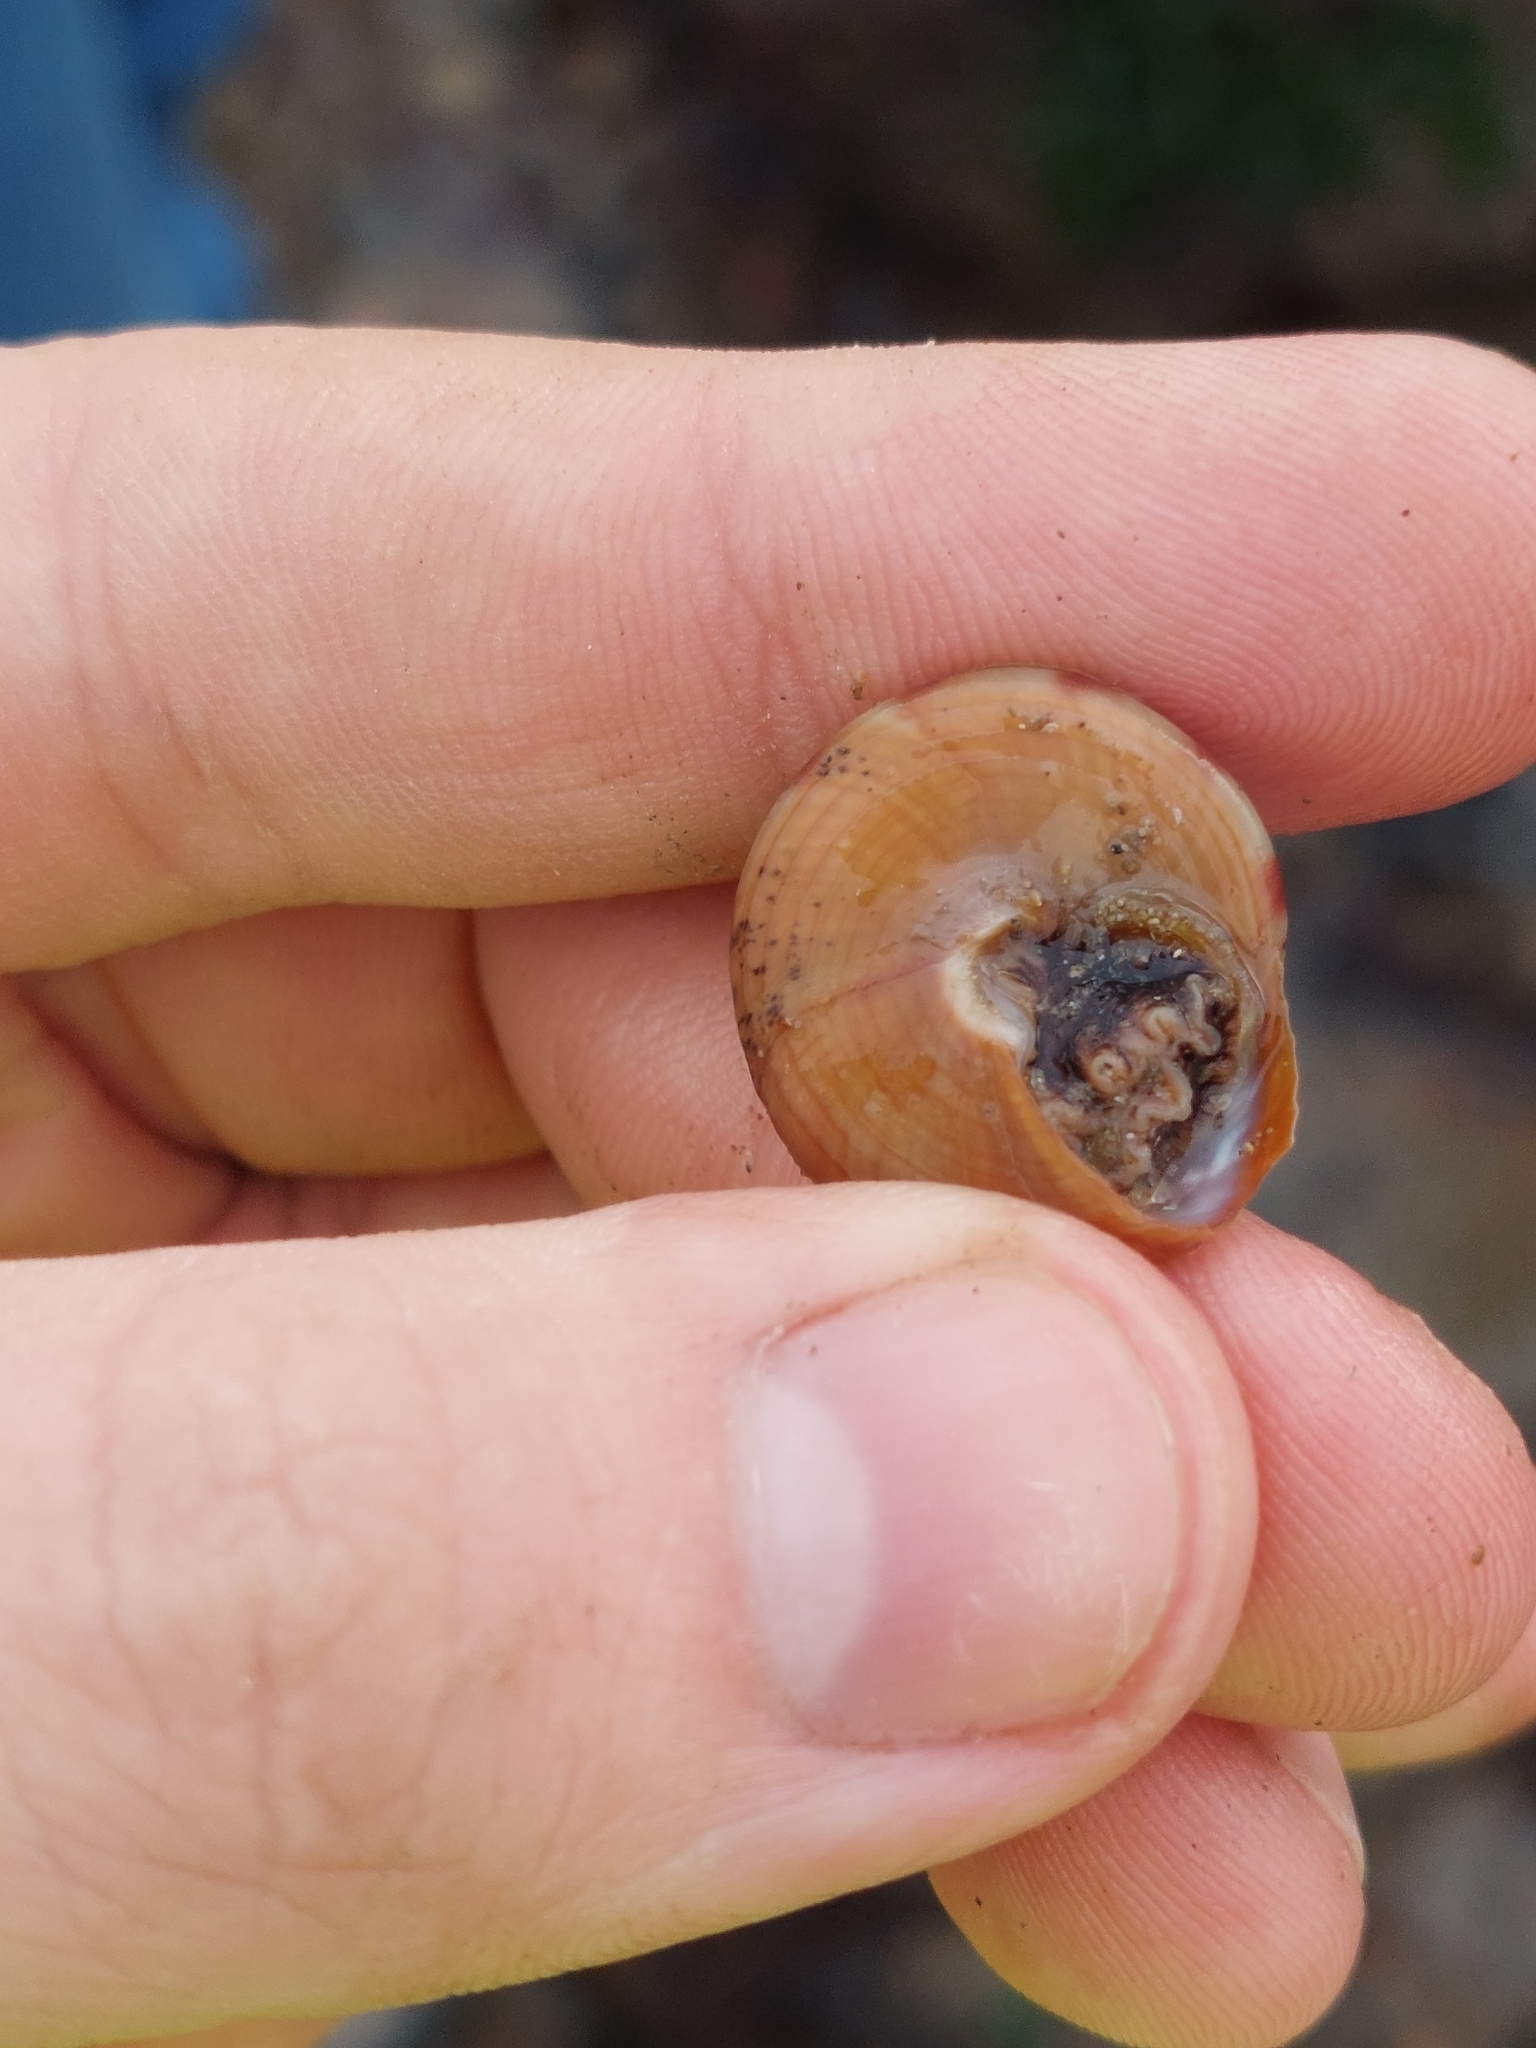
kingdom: Animalia
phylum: Mollusca
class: Gastropoda
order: Trochida
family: Calliostomatidae
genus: Calliostoma
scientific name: Calliostoma zizyphinum
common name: Painted top shell
